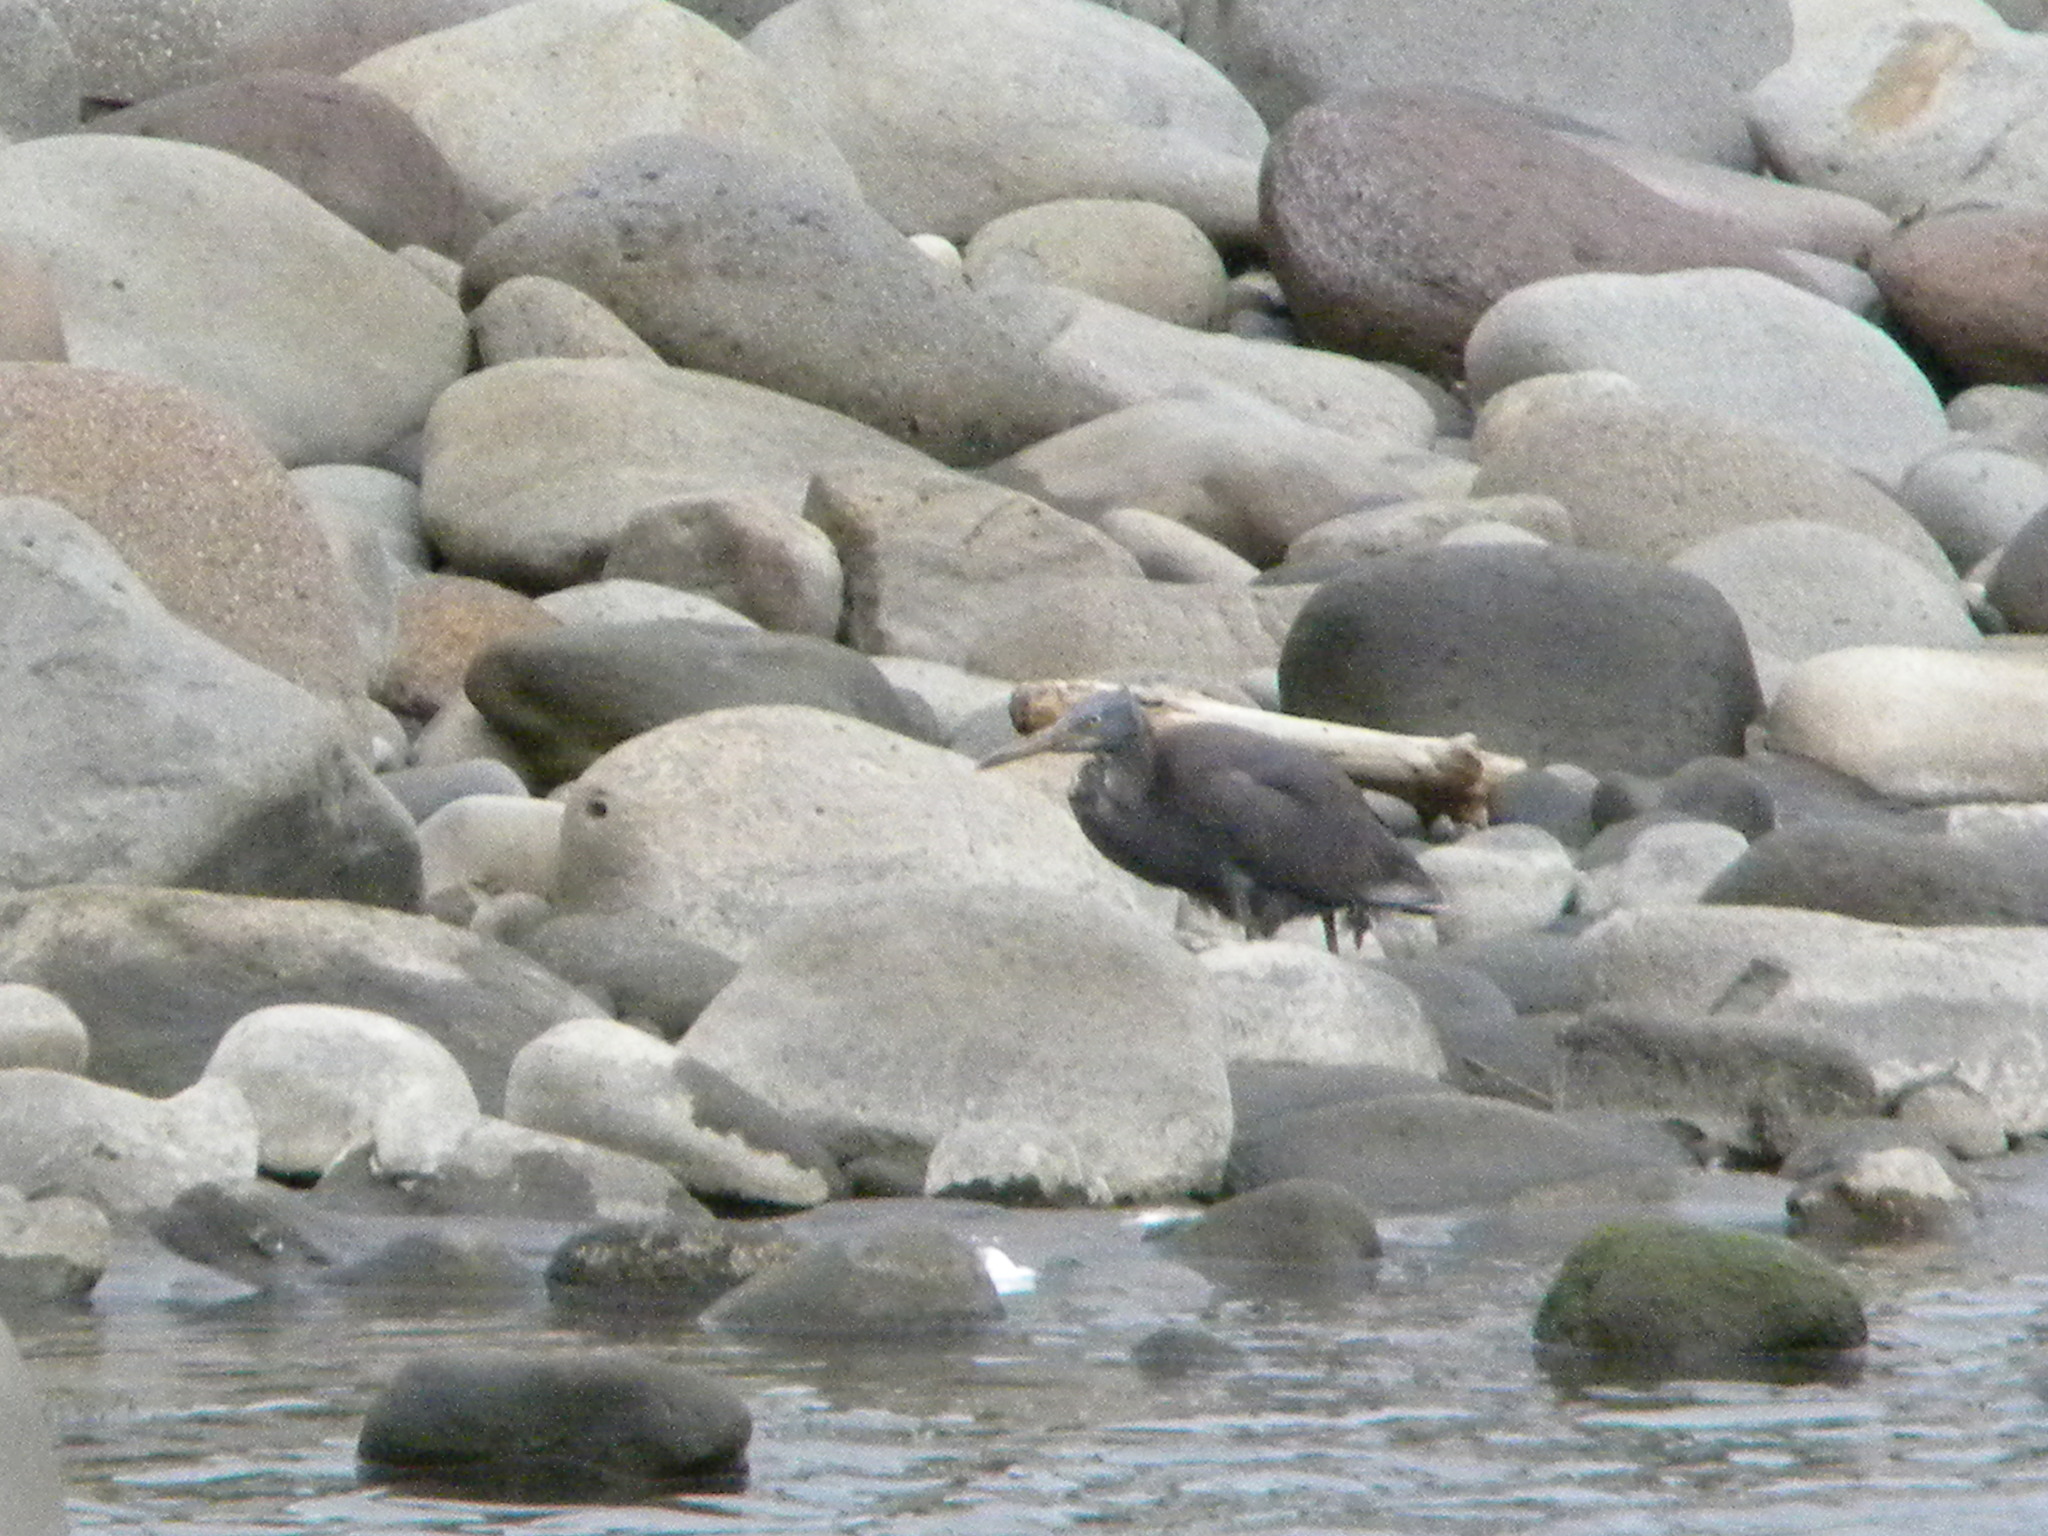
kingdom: Animalia
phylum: Chordata
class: Aves
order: Pelecaniformes
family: Ardeidae
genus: Egretta
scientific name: Egretta sacra
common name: Pacific reef heron
